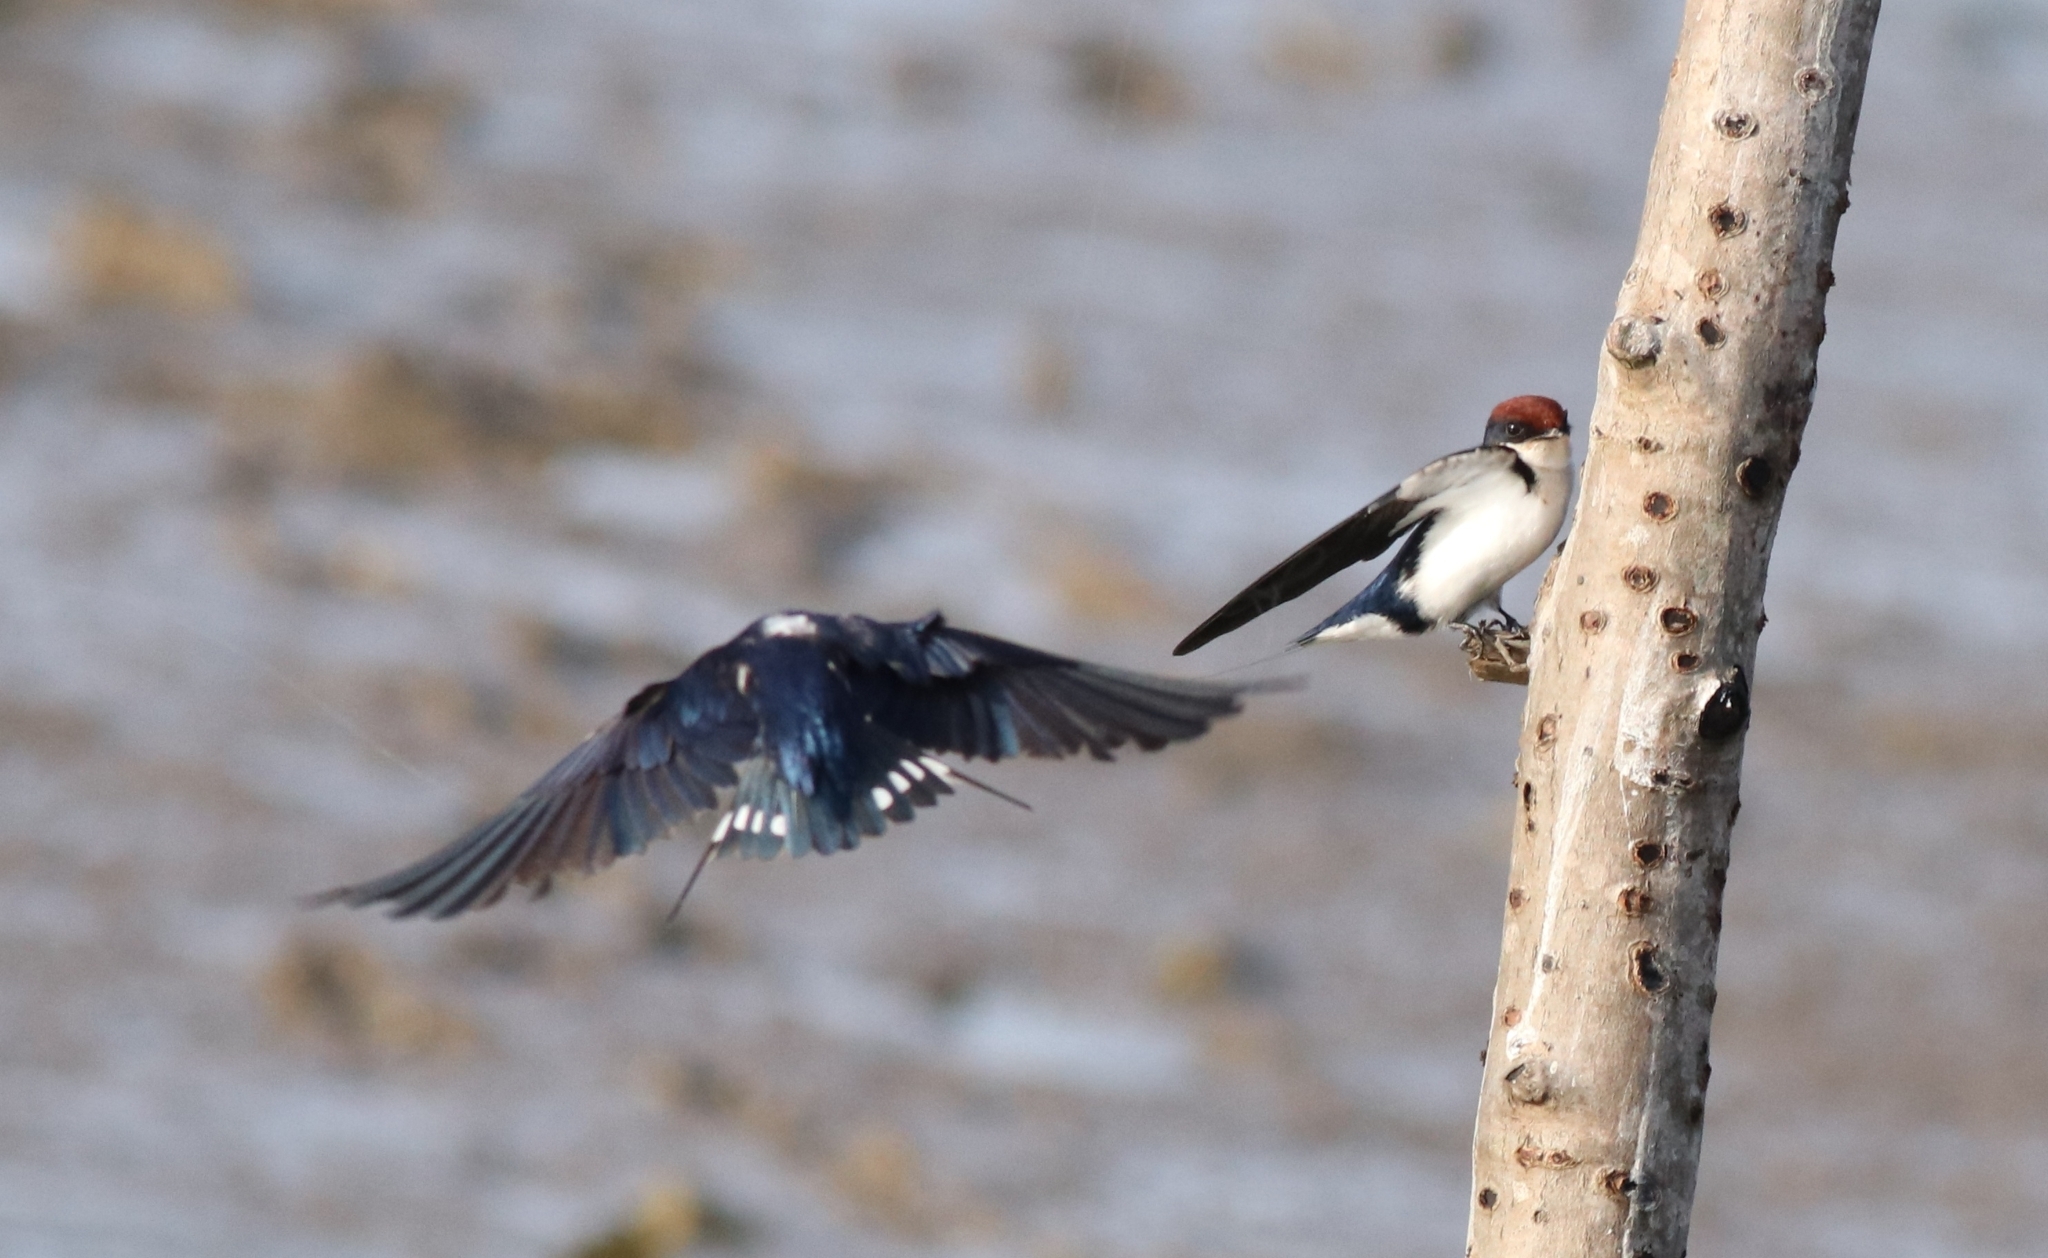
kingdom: Animalia
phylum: Chordata
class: Aves
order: Passeriformes
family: Hirundinidae
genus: Hirundo
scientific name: Hirundo smithii
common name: Wire-tailed swallow
